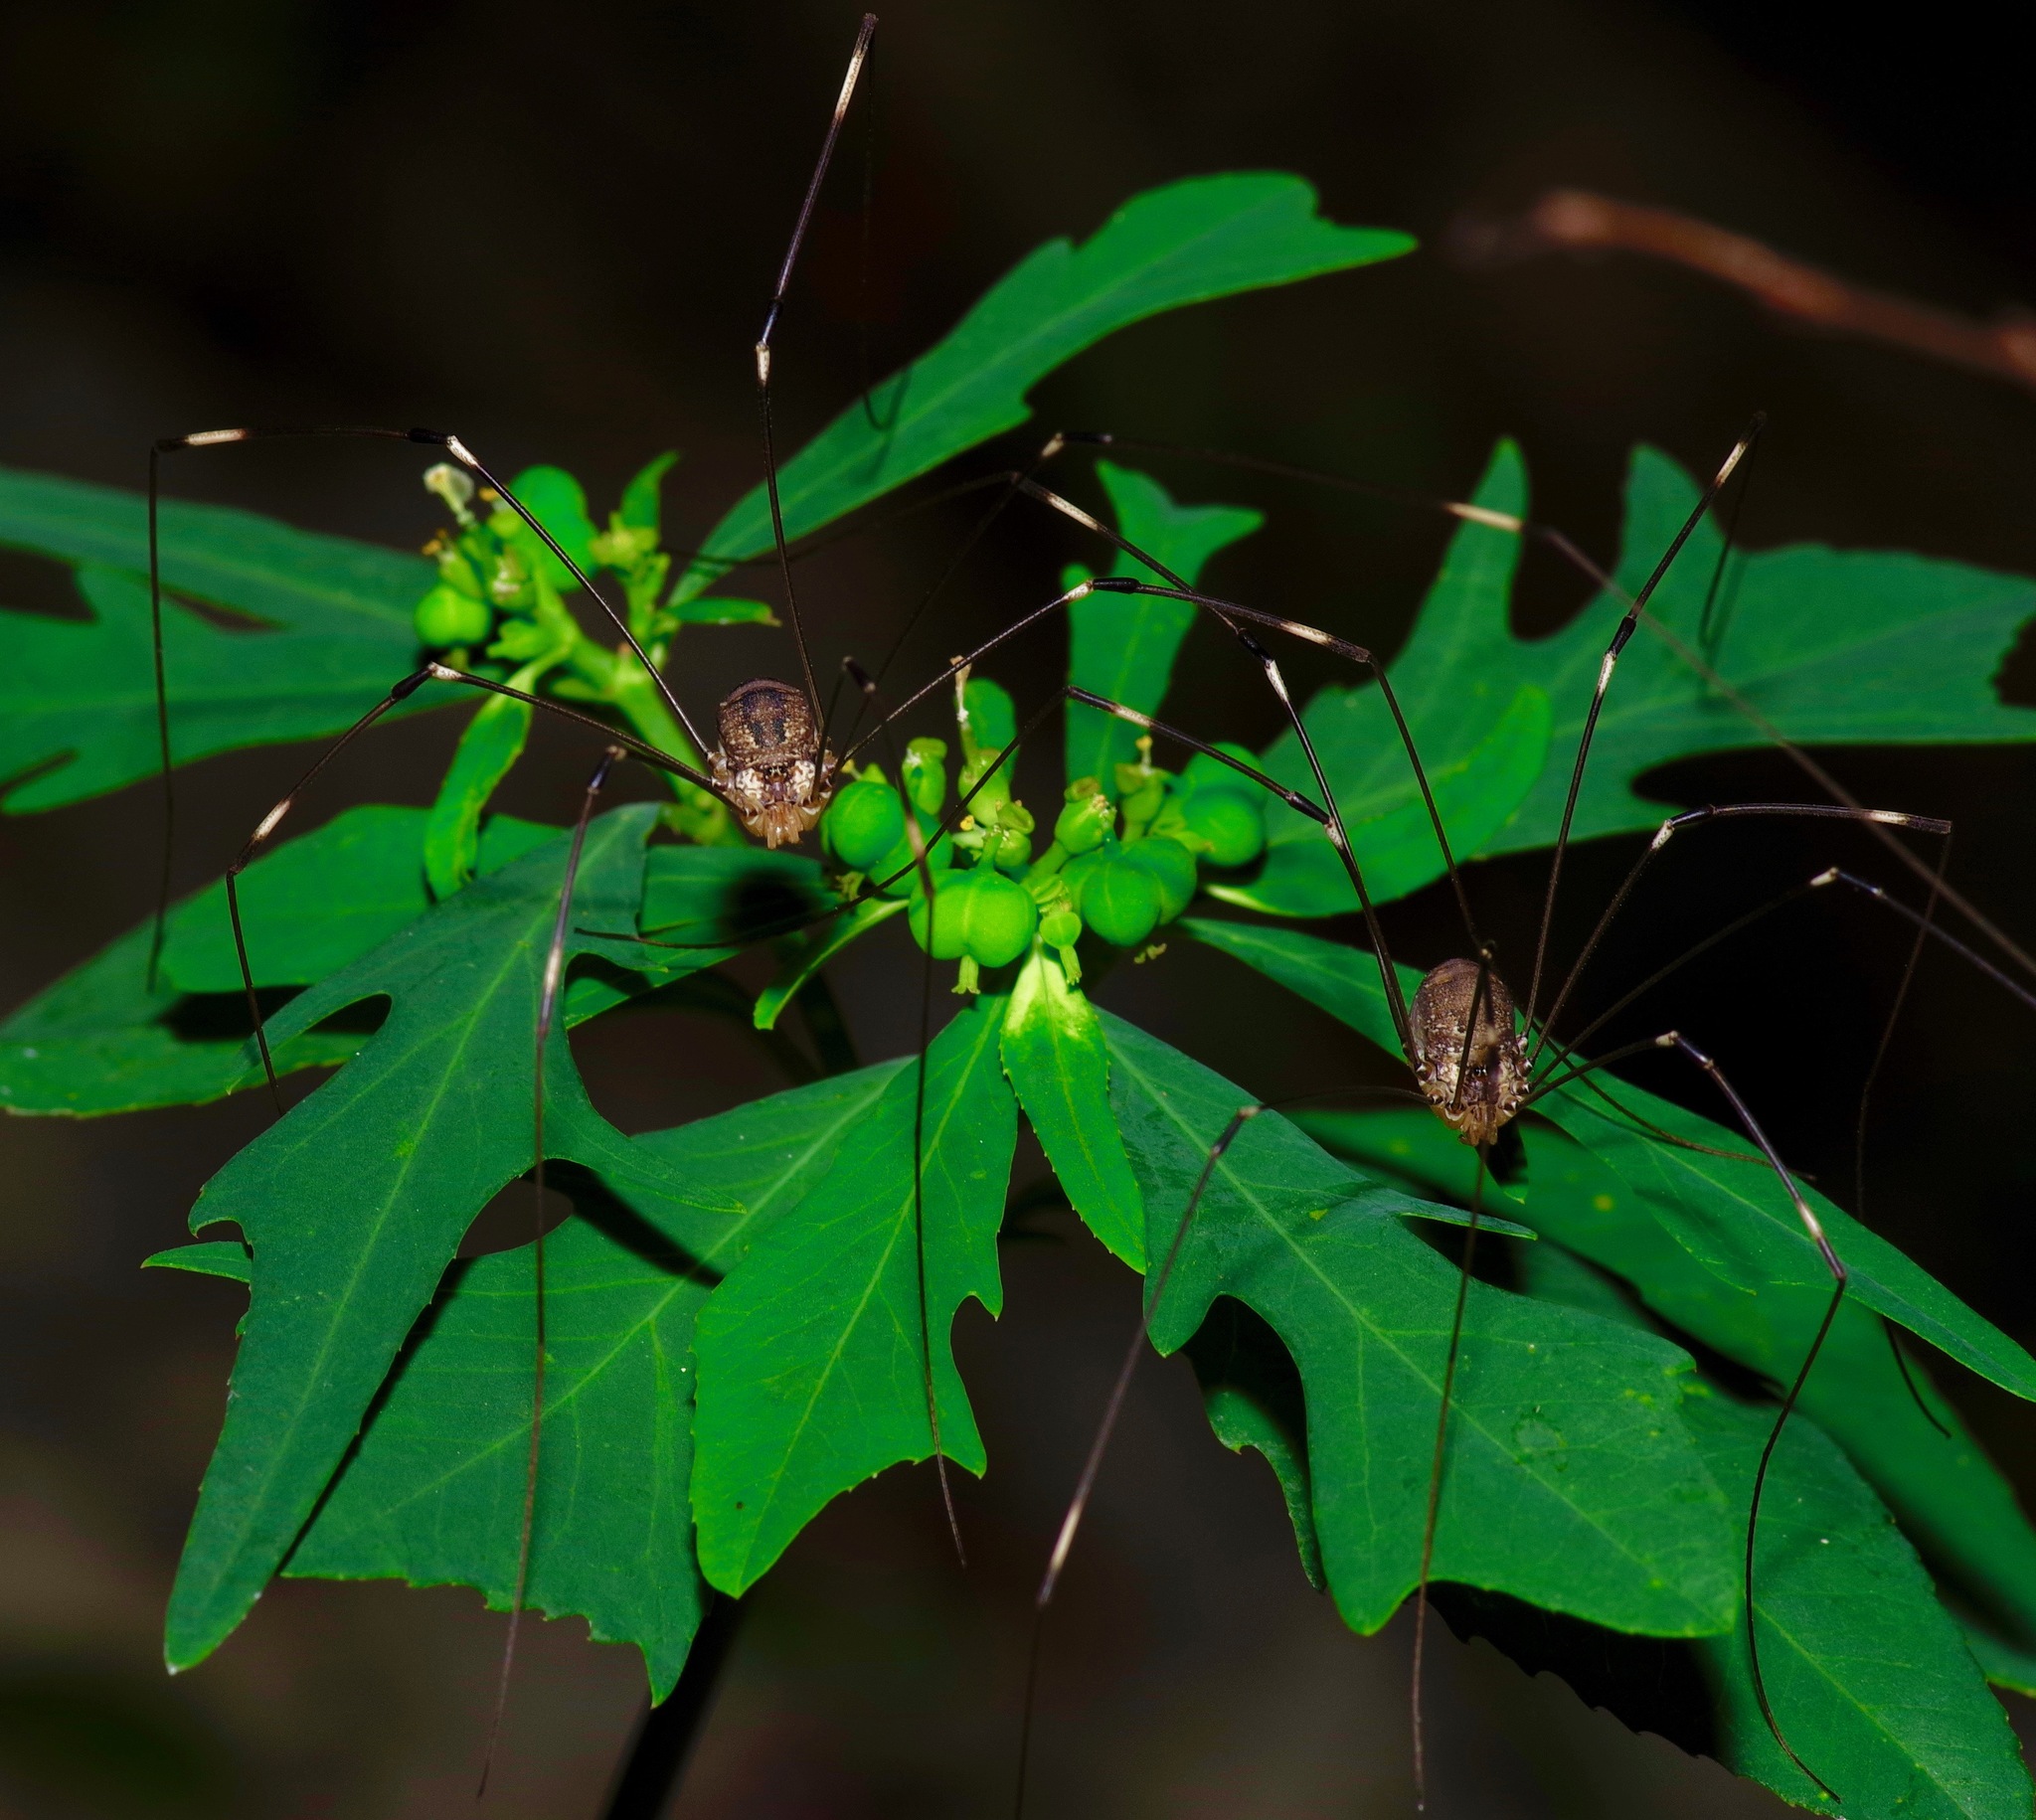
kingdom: Animalia
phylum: Arthropoda
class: Arachnida
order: Opiliones
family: Sclerosomatidae
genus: Leiobunum
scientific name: Leiobunum townsendi
